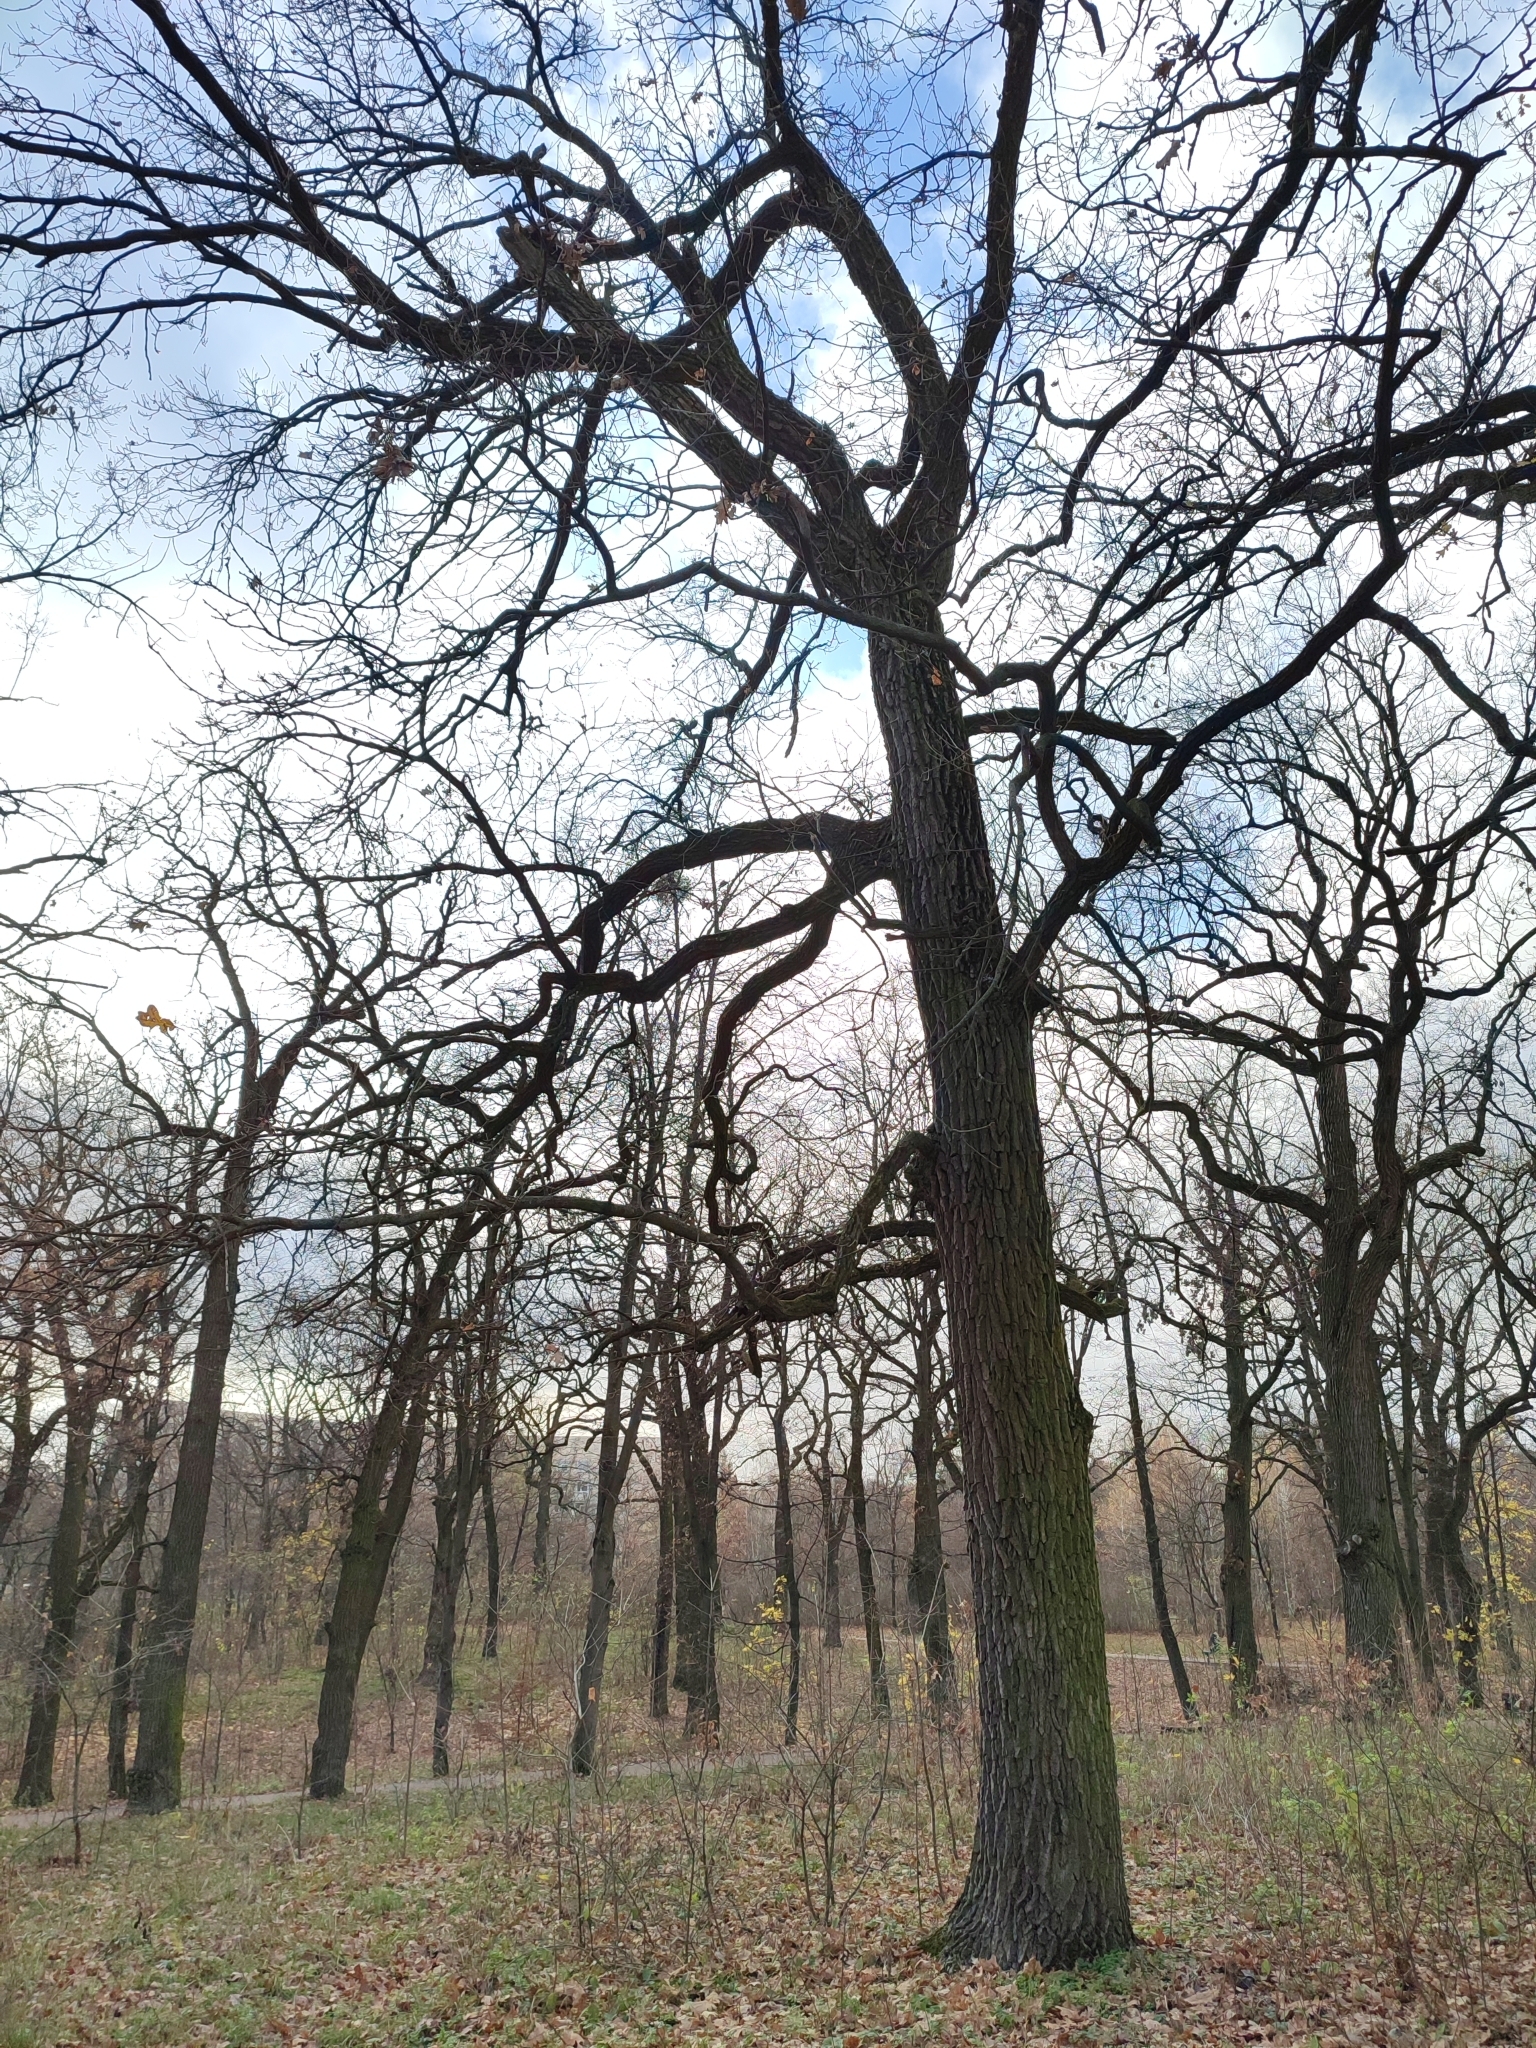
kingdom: Plantae
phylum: Tracheophyta
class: Magnoliopsida
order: Fagales
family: Fagaceae
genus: Quercus
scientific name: Quercus robur
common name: Pedunculate oak
